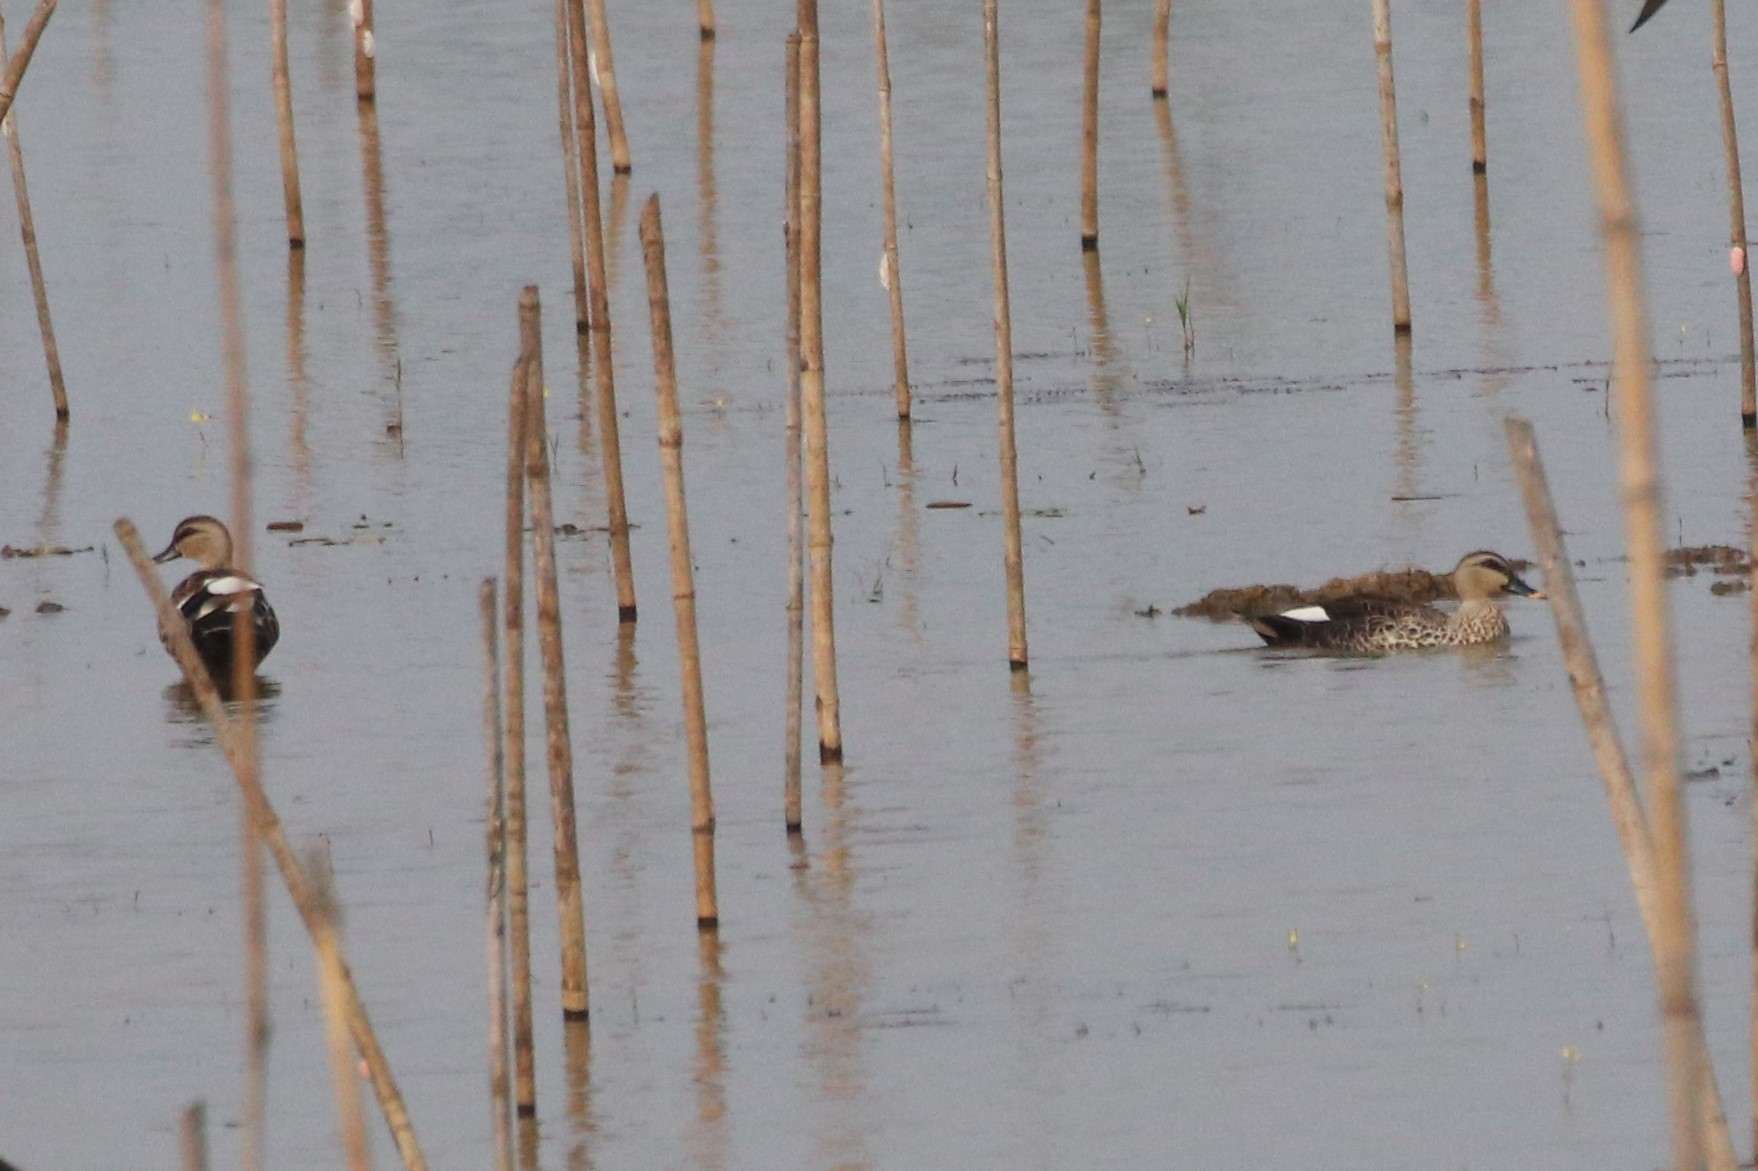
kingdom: Animalia
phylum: Chordata
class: Aves
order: Anseriformes
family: Anatidae
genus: Anas
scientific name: Anas poecilorhyncha
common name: Indian spot-billed duck
